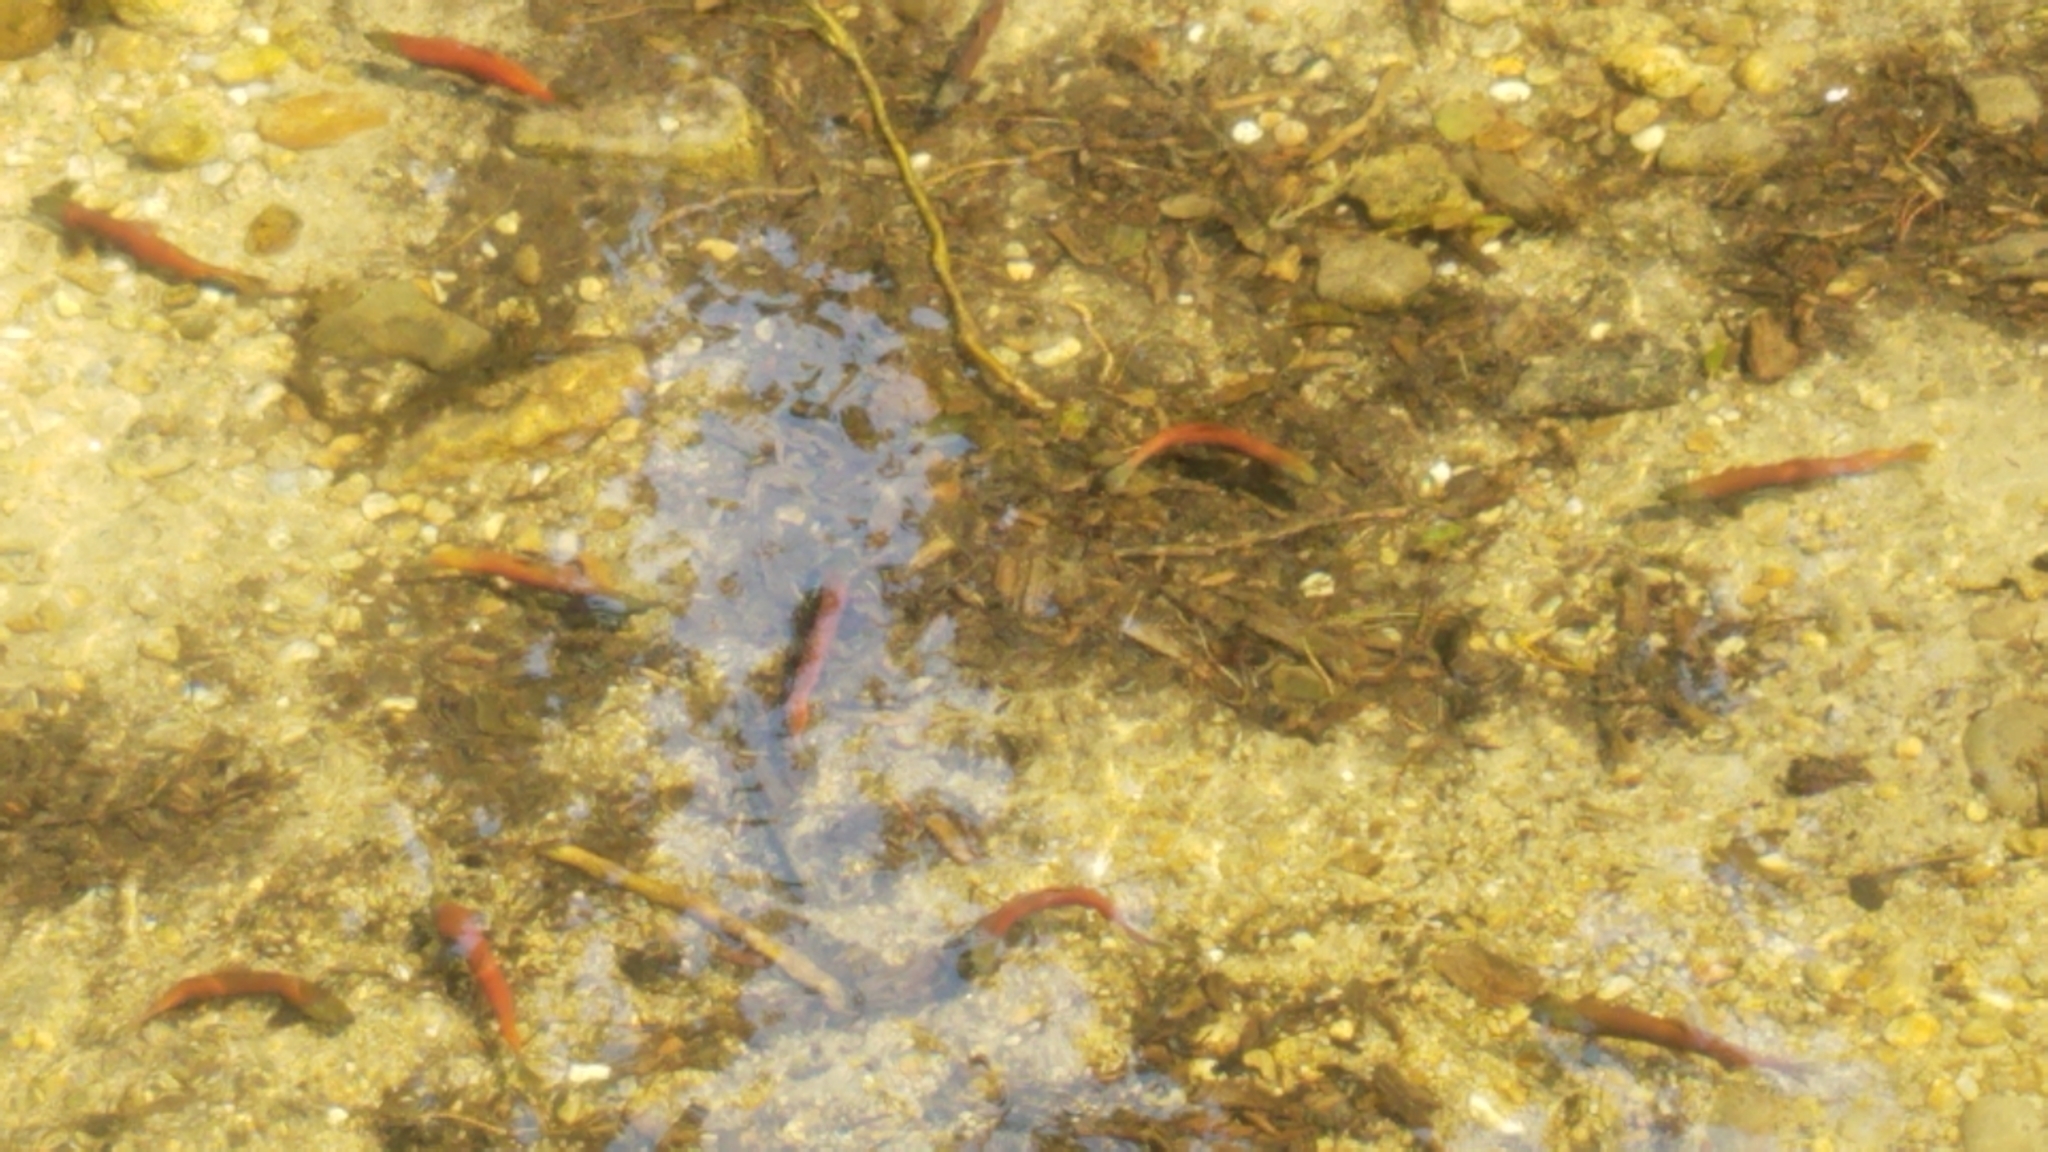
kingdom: Animalia
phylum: Chordata
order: Salmoniformes
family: Salmonidae
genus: Oncorhynchus
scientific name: Oncorhynchus nerka
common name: Sockeye salmon
